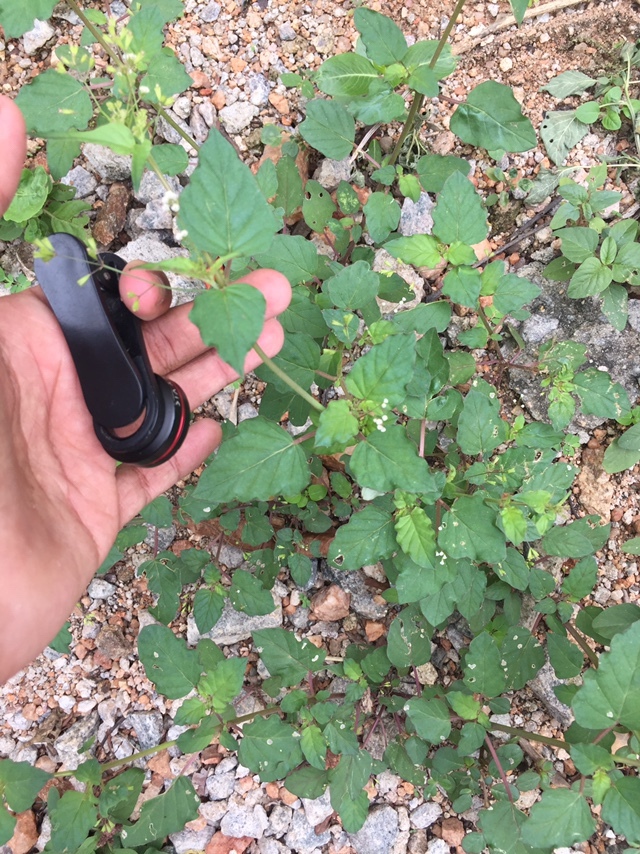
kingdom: Plantae
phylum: Tracheophyta
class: Magnoliopsida
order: Caryophyllales
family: Nyctaginaceae
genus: Boerhavia
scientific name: Boerhavia erecta
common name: Erect spiderling
